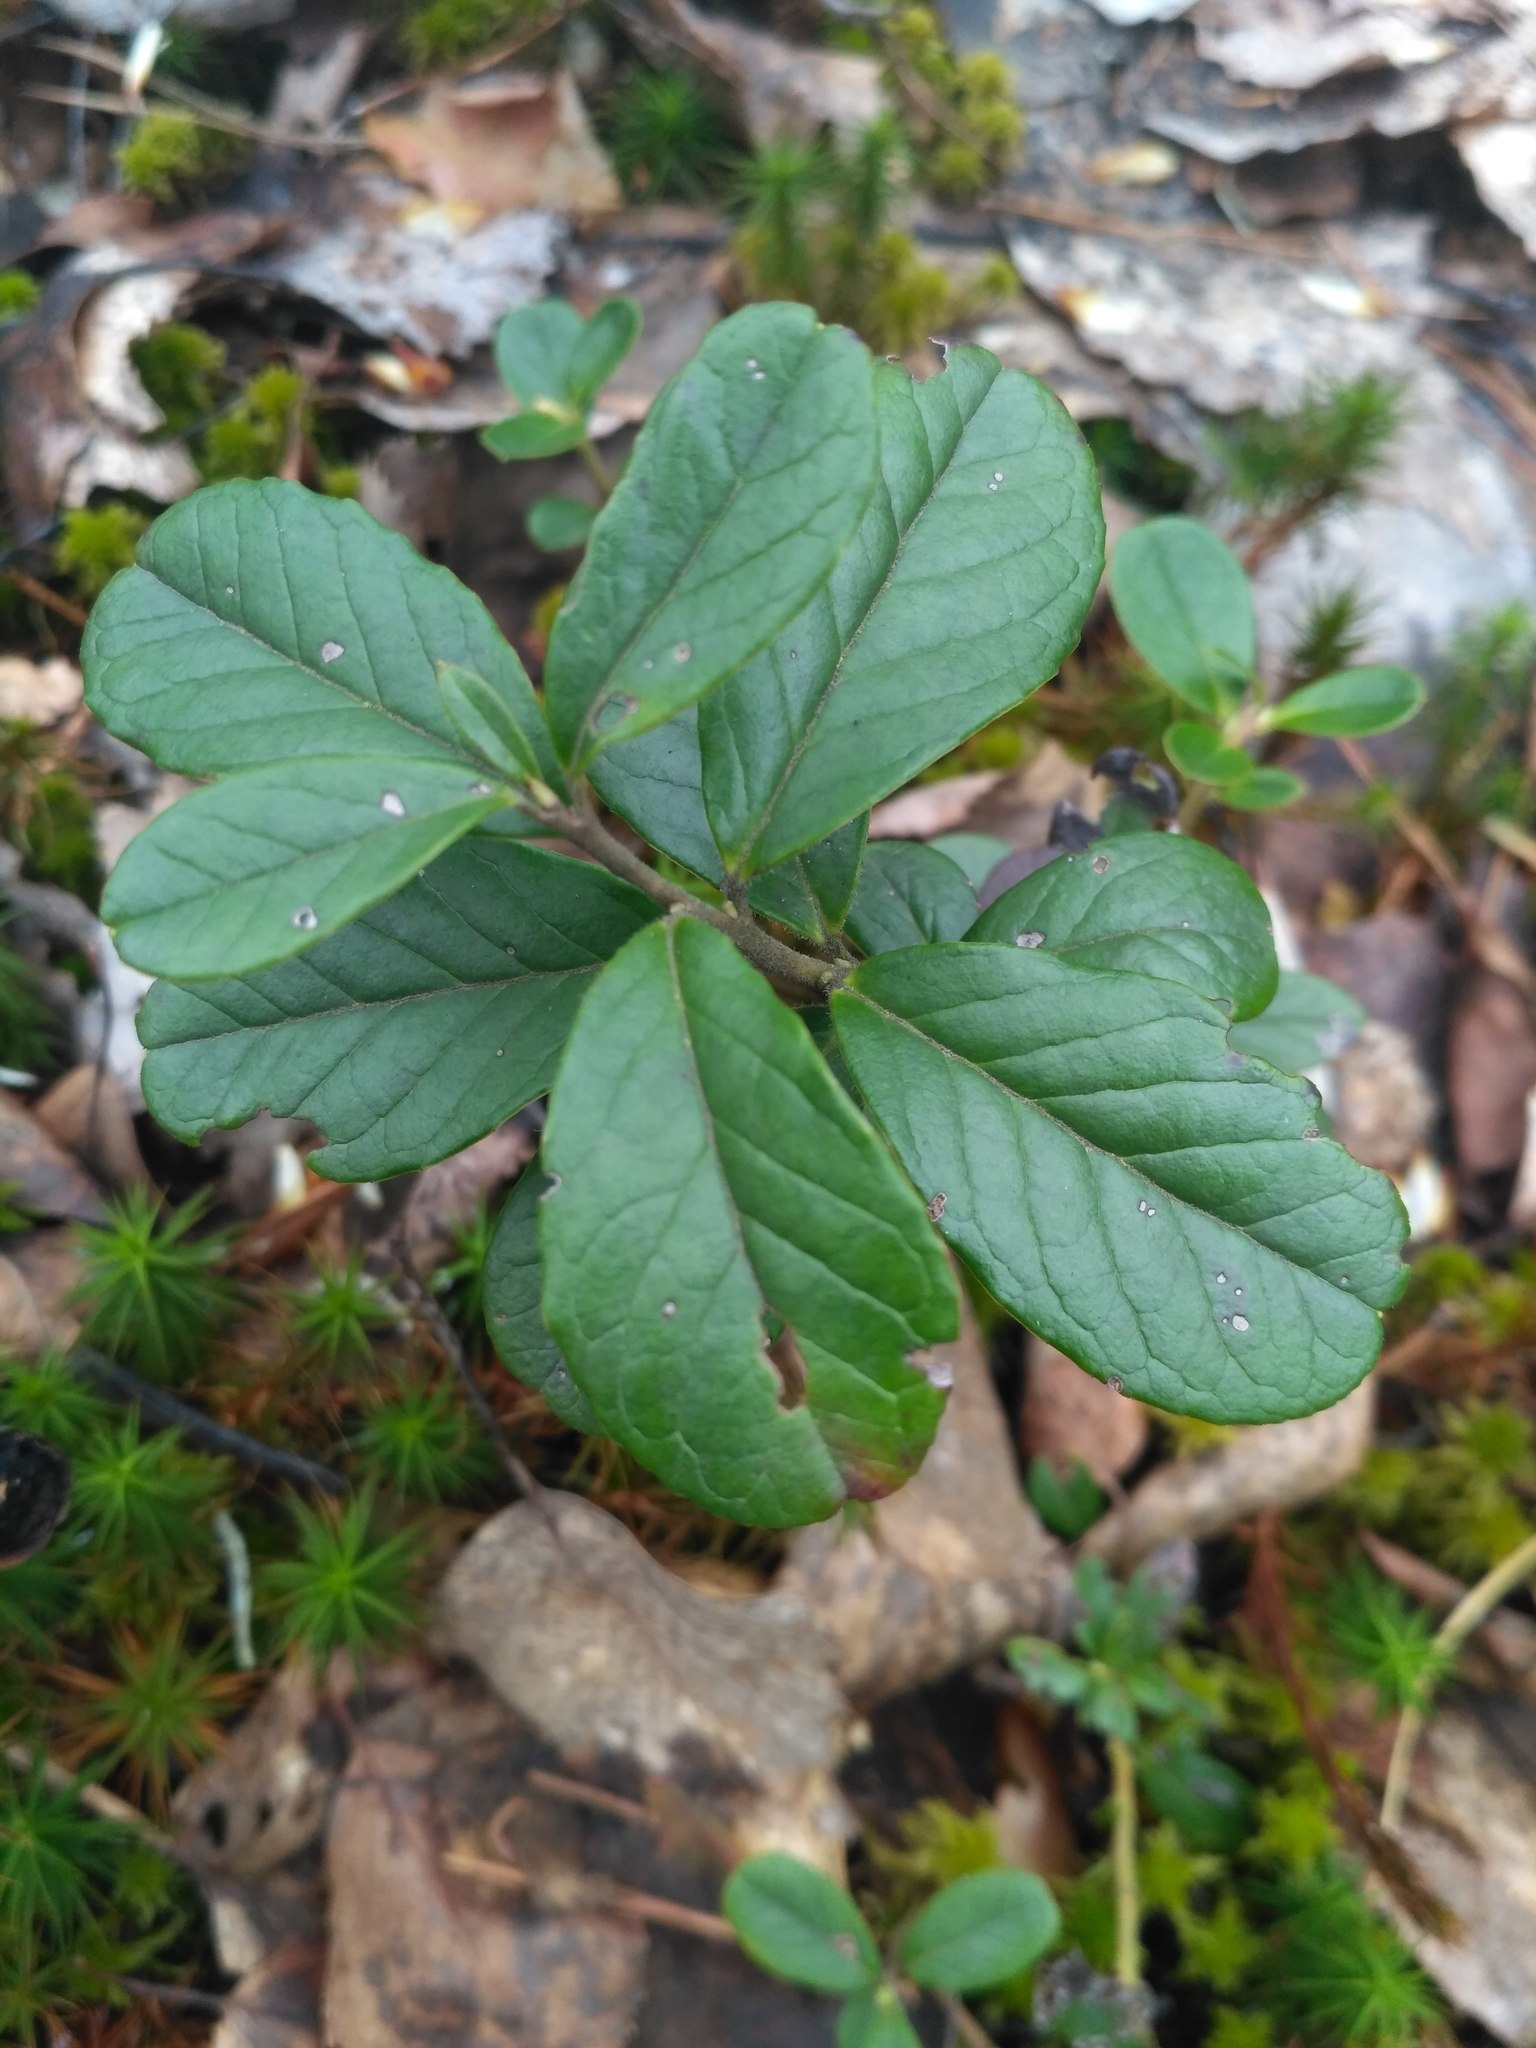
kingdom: Plantae
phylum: Tracheophyta
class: Magnoliopsida
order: Ericales
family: Ericaceae
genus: Vaccinium
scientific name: Vaccinium vitis-idaea
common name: Cowberry
